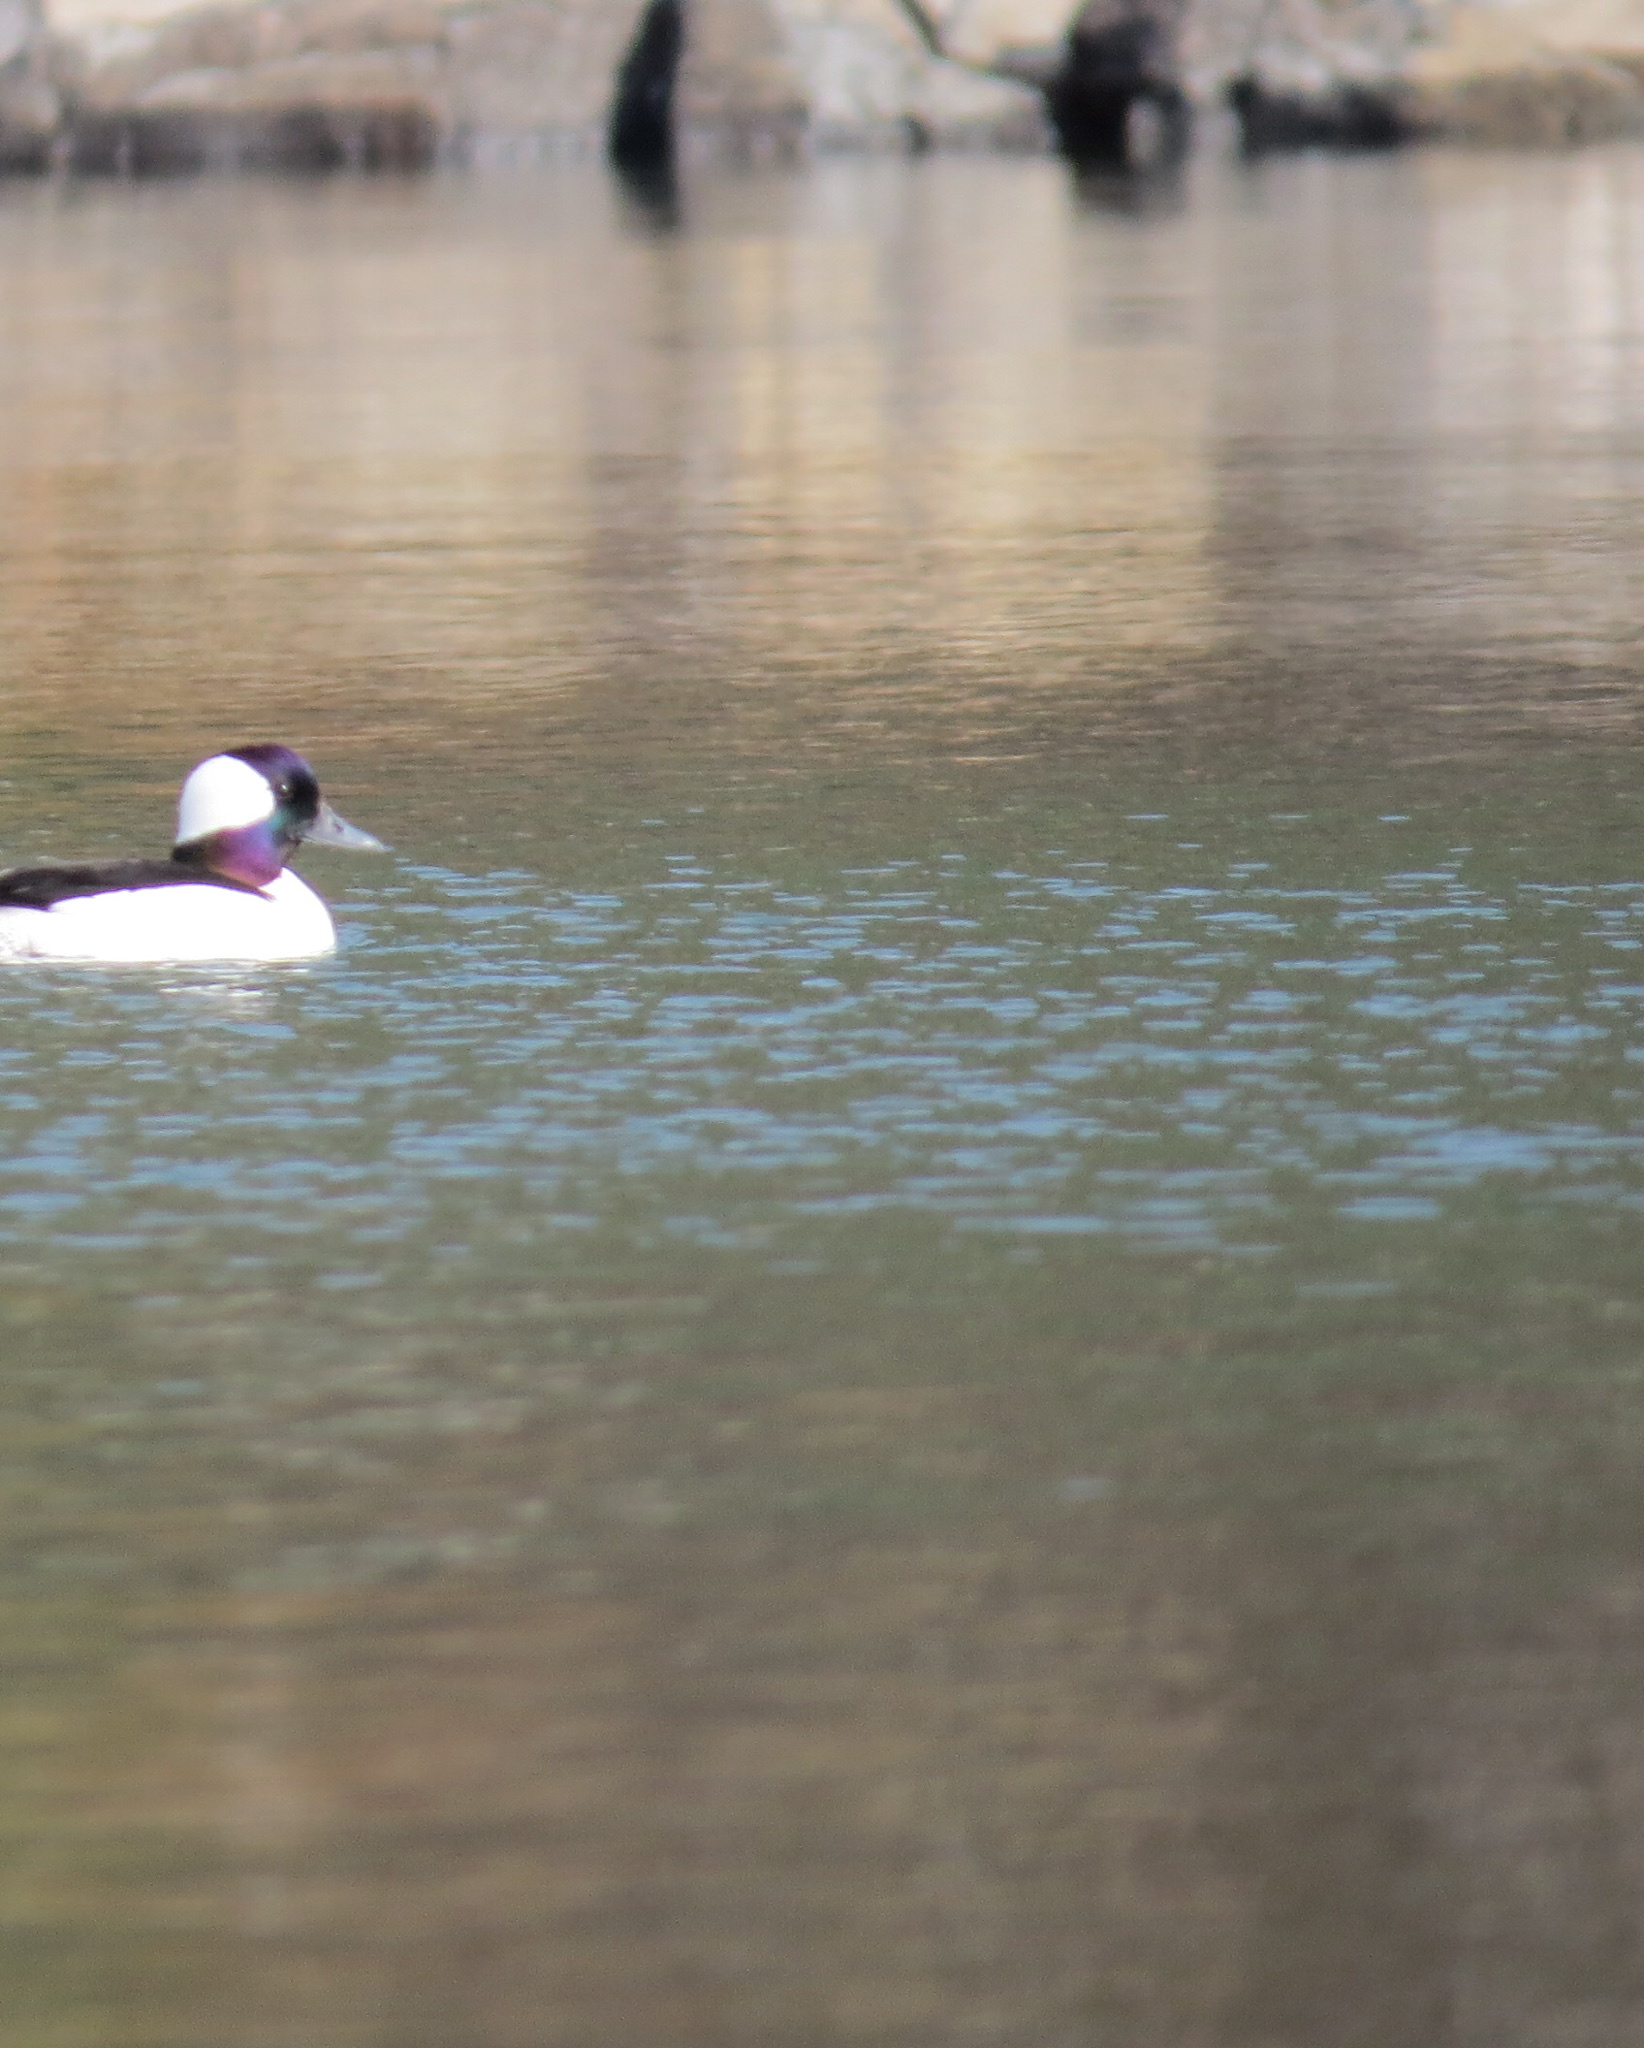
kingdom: Animalia
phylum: Chordata
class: Aves
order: Anseriformes
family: Anatidae
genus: Bucephala
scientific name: Bucephala albeola
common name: Bufflehead
